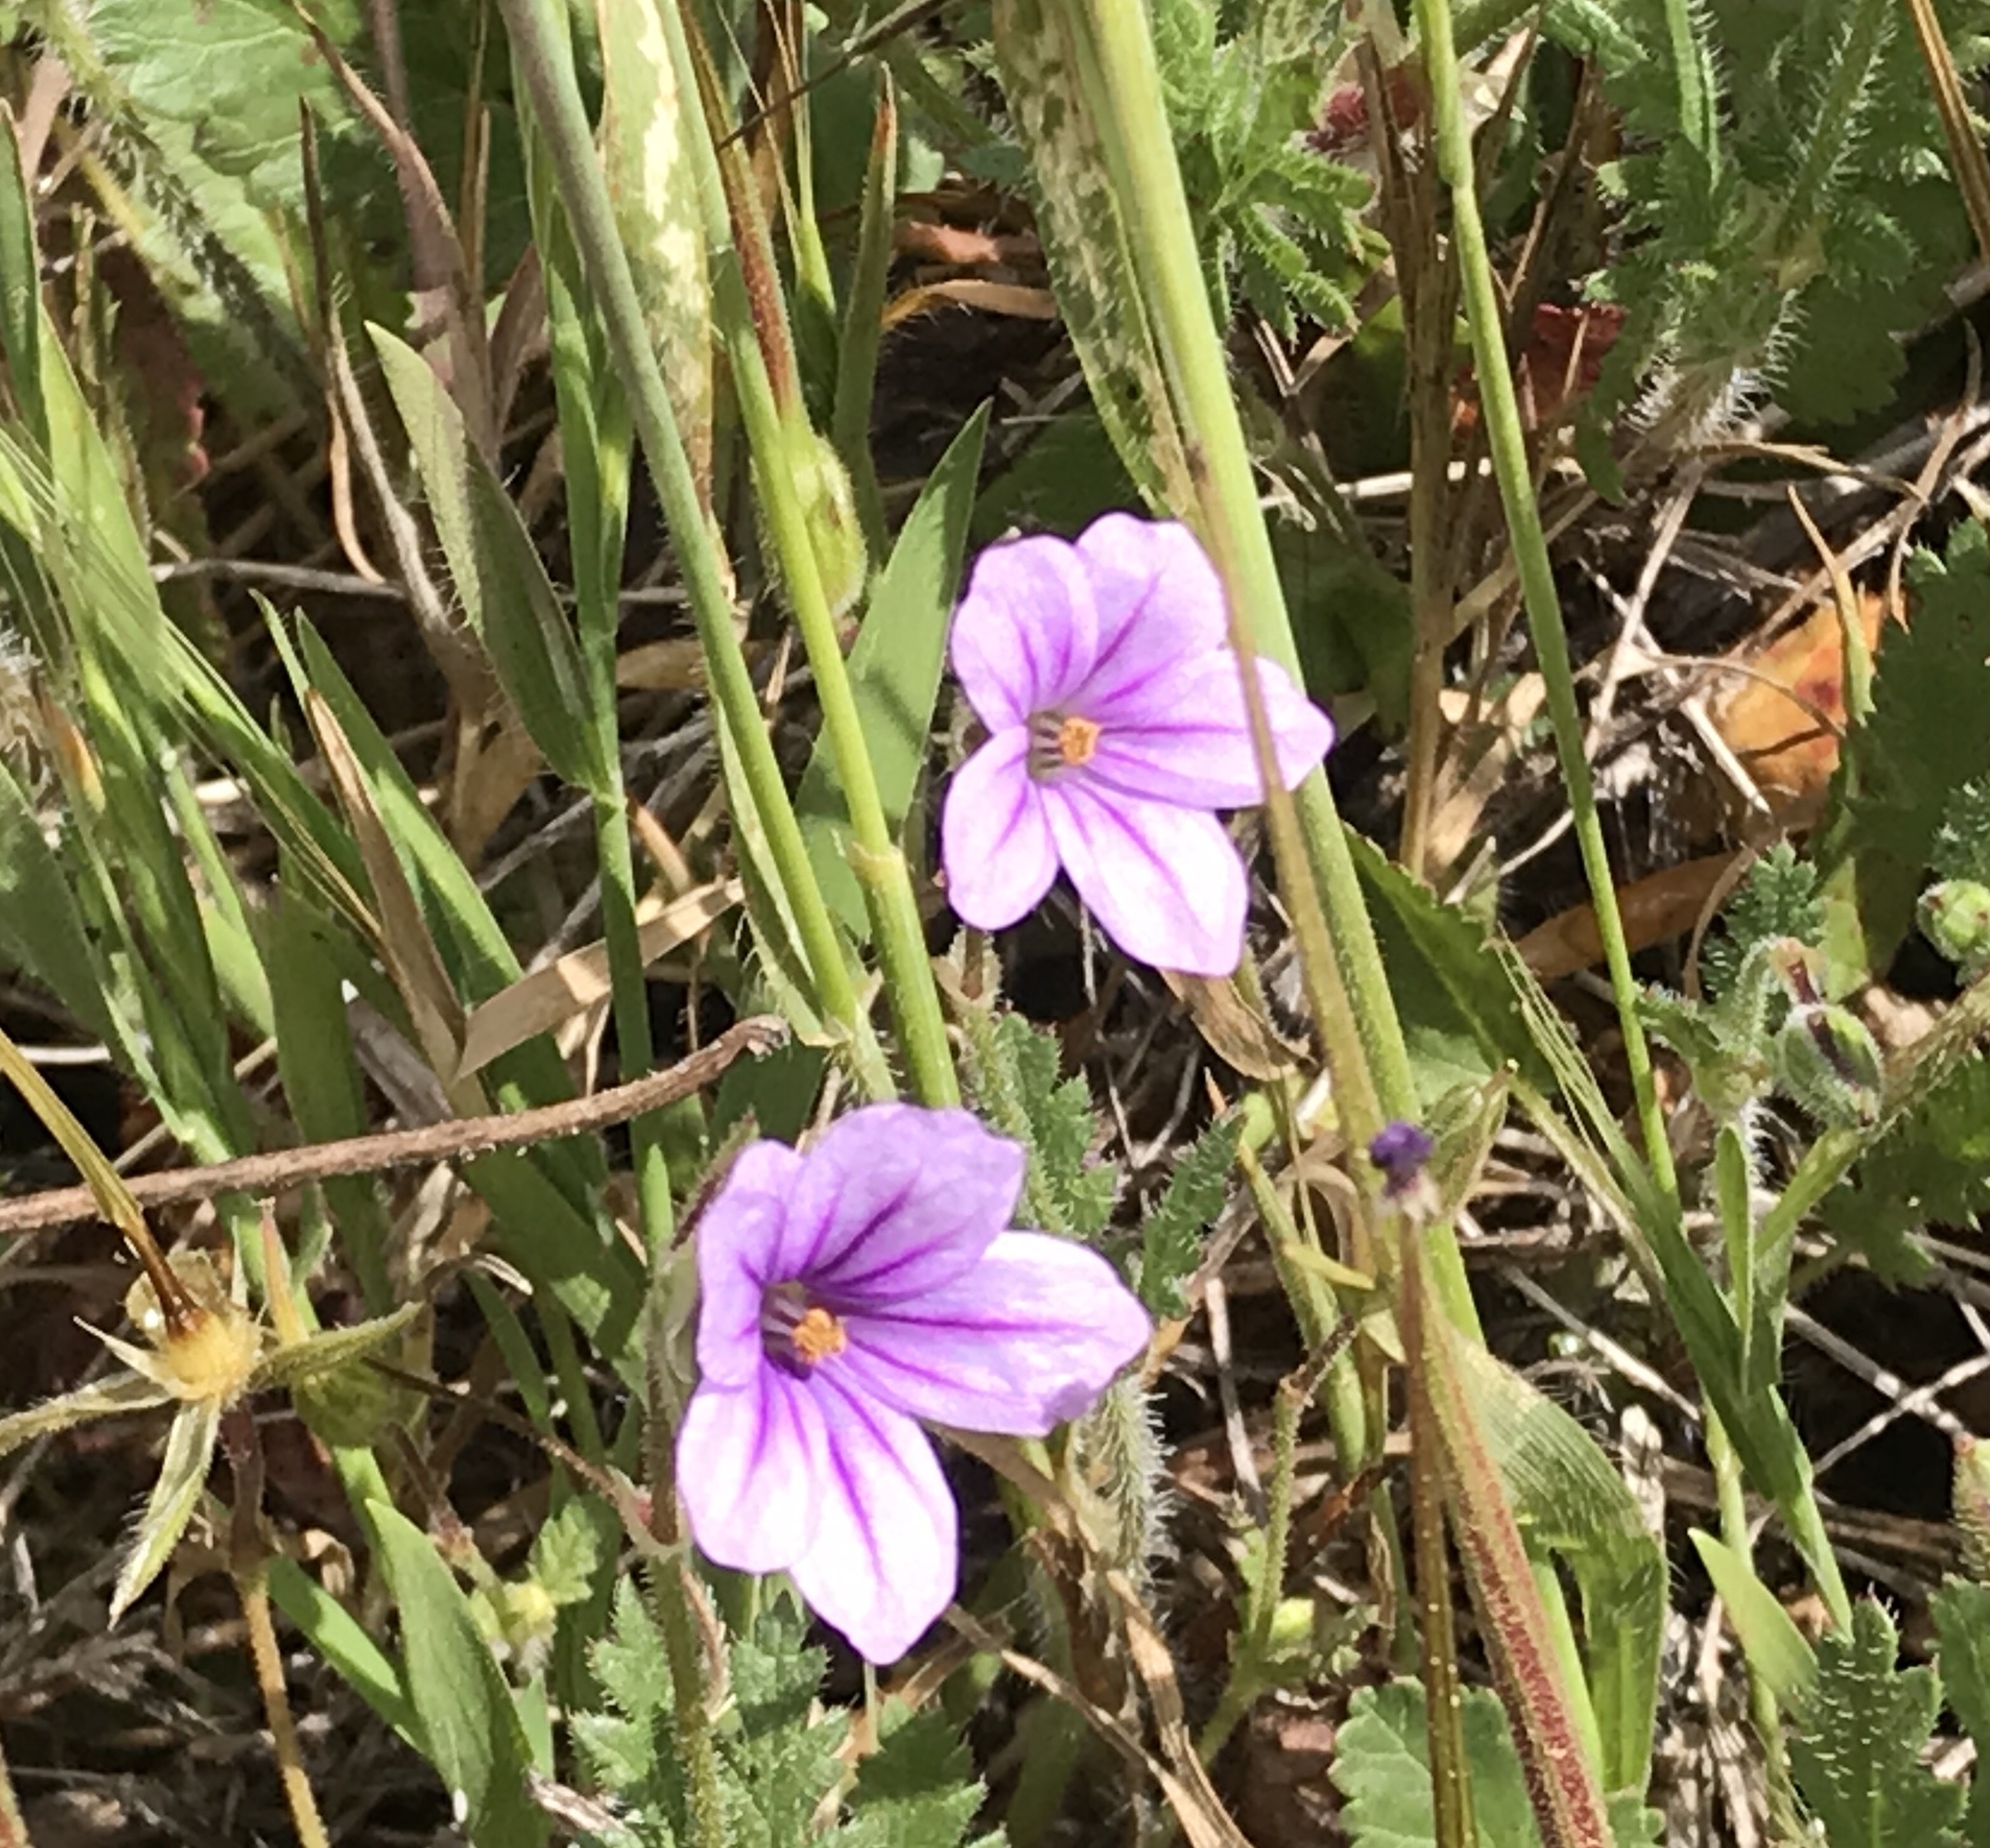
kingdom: Plantae
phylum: Tracheophyta
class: Magnoliopsida
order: Geraniales
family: Geraniaceae
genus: Erodium
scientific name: Erodium botrys
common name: Mediterranean stork's-bill
